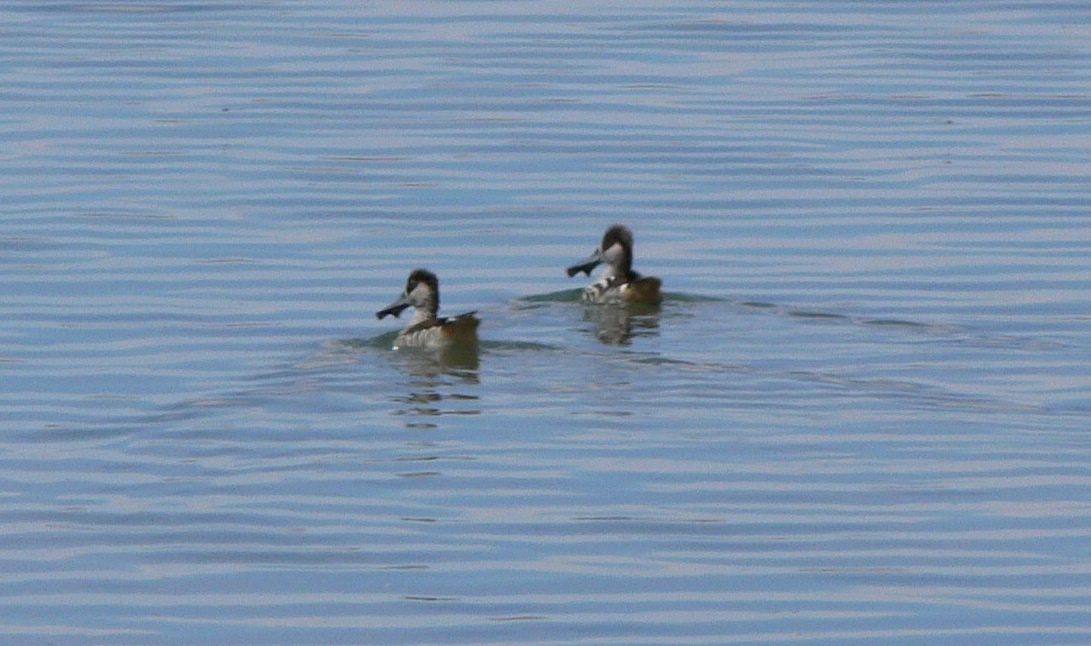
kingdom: Animalia
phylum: Chordata
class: Aves
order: Anseriformes
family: Anatidae
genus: Malacorhynchus
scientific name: Malacorhynchus membranaceus
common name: Pink-eared duck
